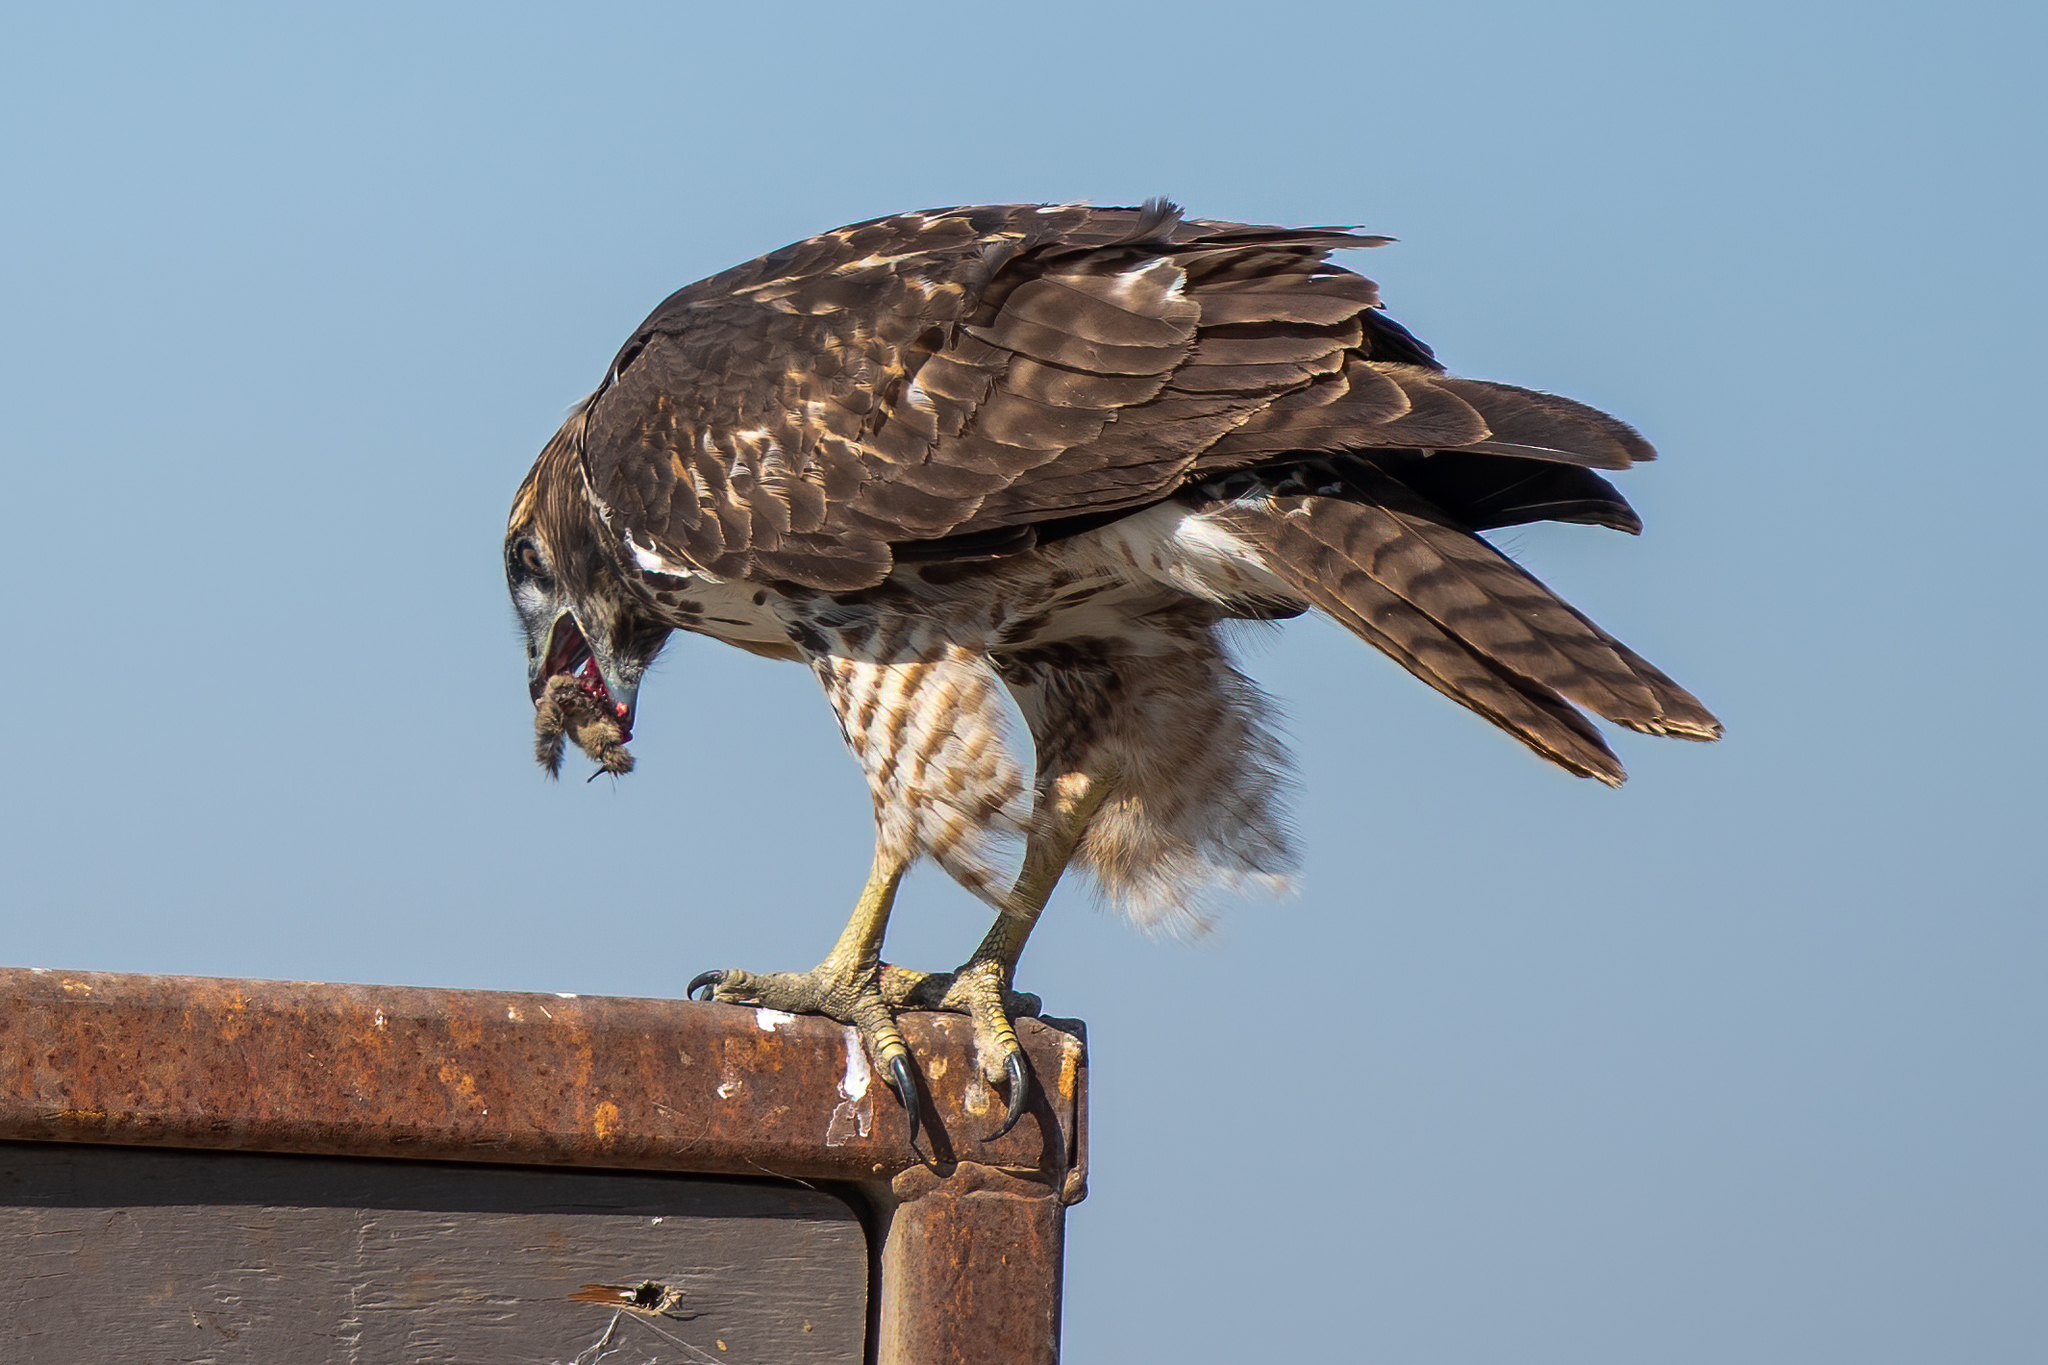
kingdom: Animalia
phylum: Chordata
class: Aves
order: Accipitriformes
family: Accipitridae
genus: Buteo
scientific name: Buteo jamaicensis
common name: Red-tailed hawk
